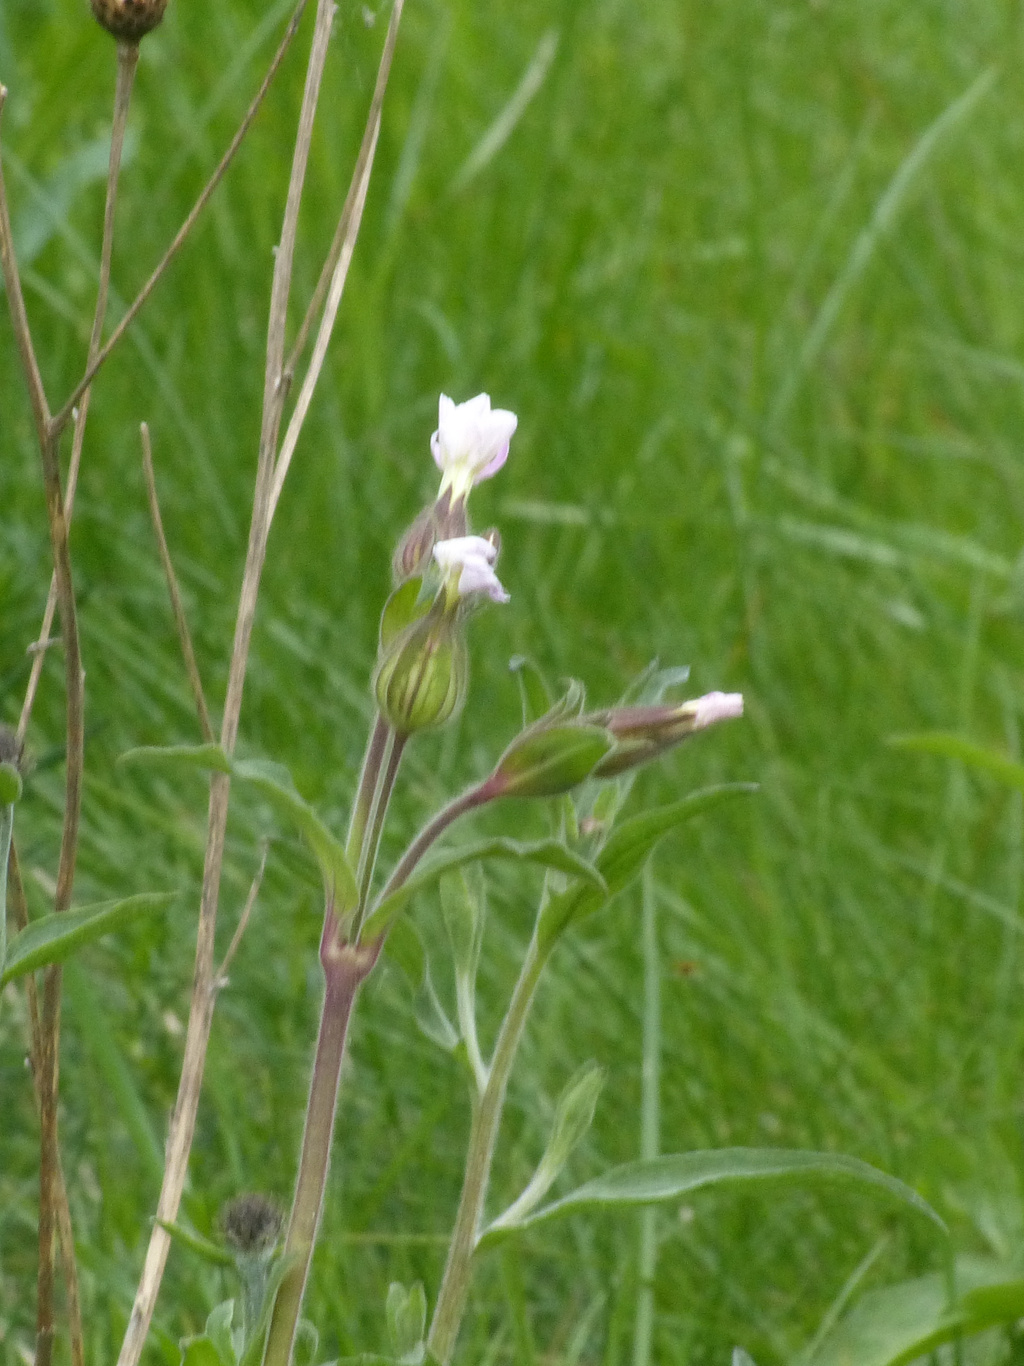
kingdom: Plantae
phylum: Tracheophyta
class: Magnoliopsida
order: Caryophyllales
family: Caryophyllaceae
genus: Silene
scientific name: Silene latifolia
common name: White campion
